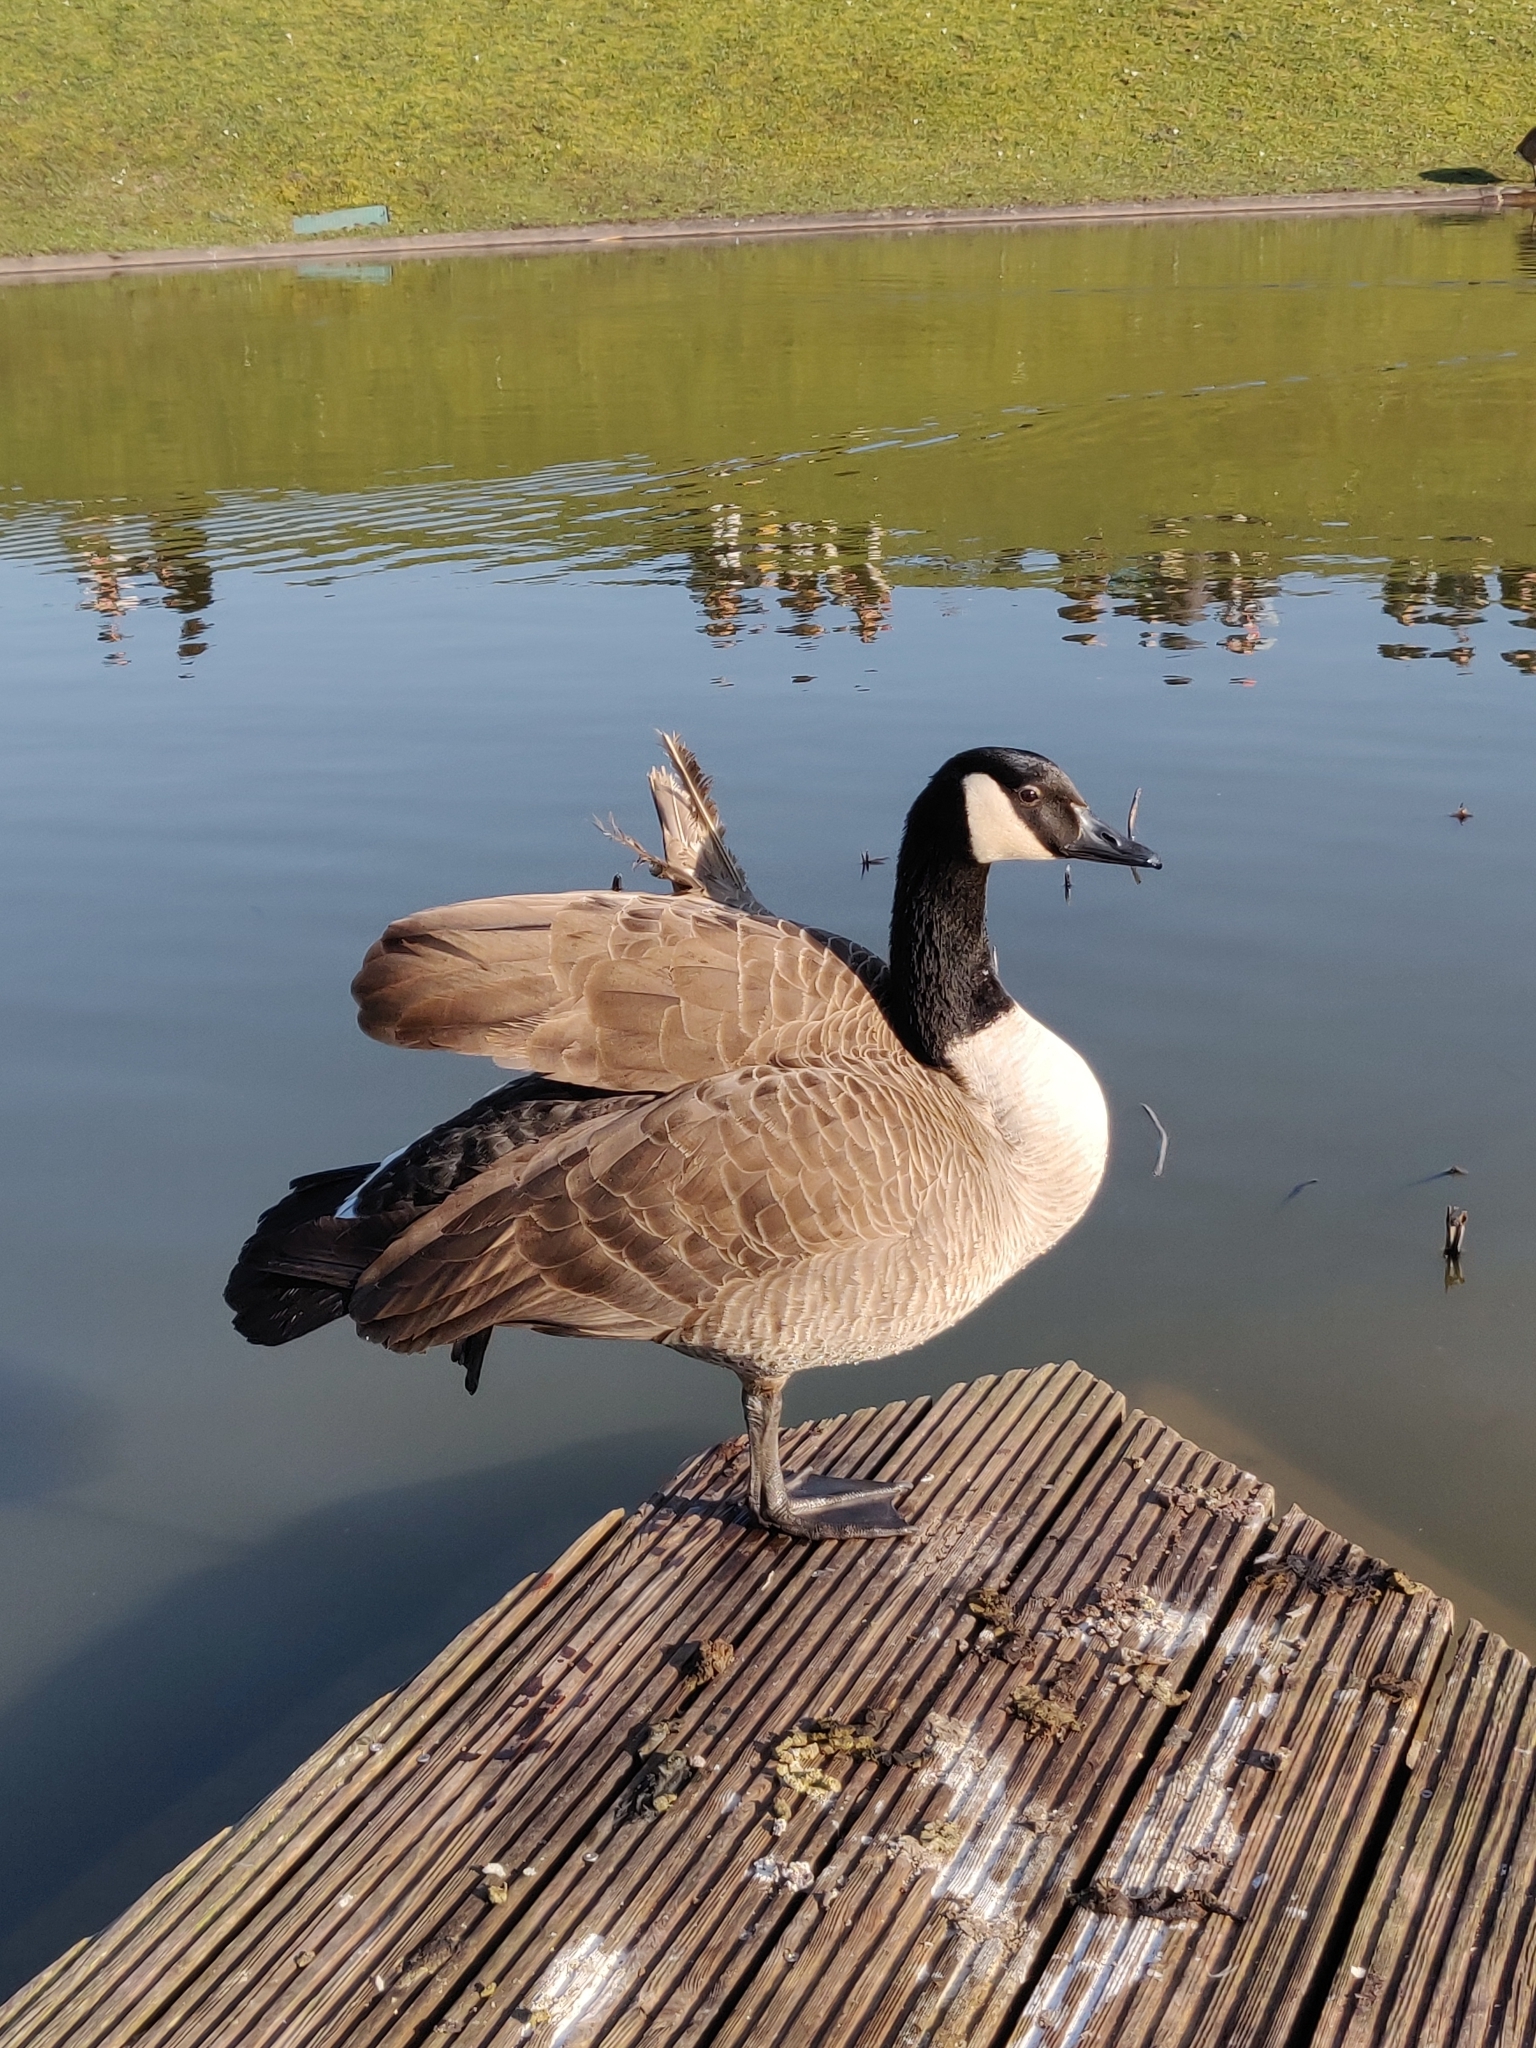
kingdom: Animalia
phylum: Chordata
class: Aves
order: Anseriformes
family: Anatidae
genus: Branta
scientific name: Branta canadensis
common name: Canada goose
